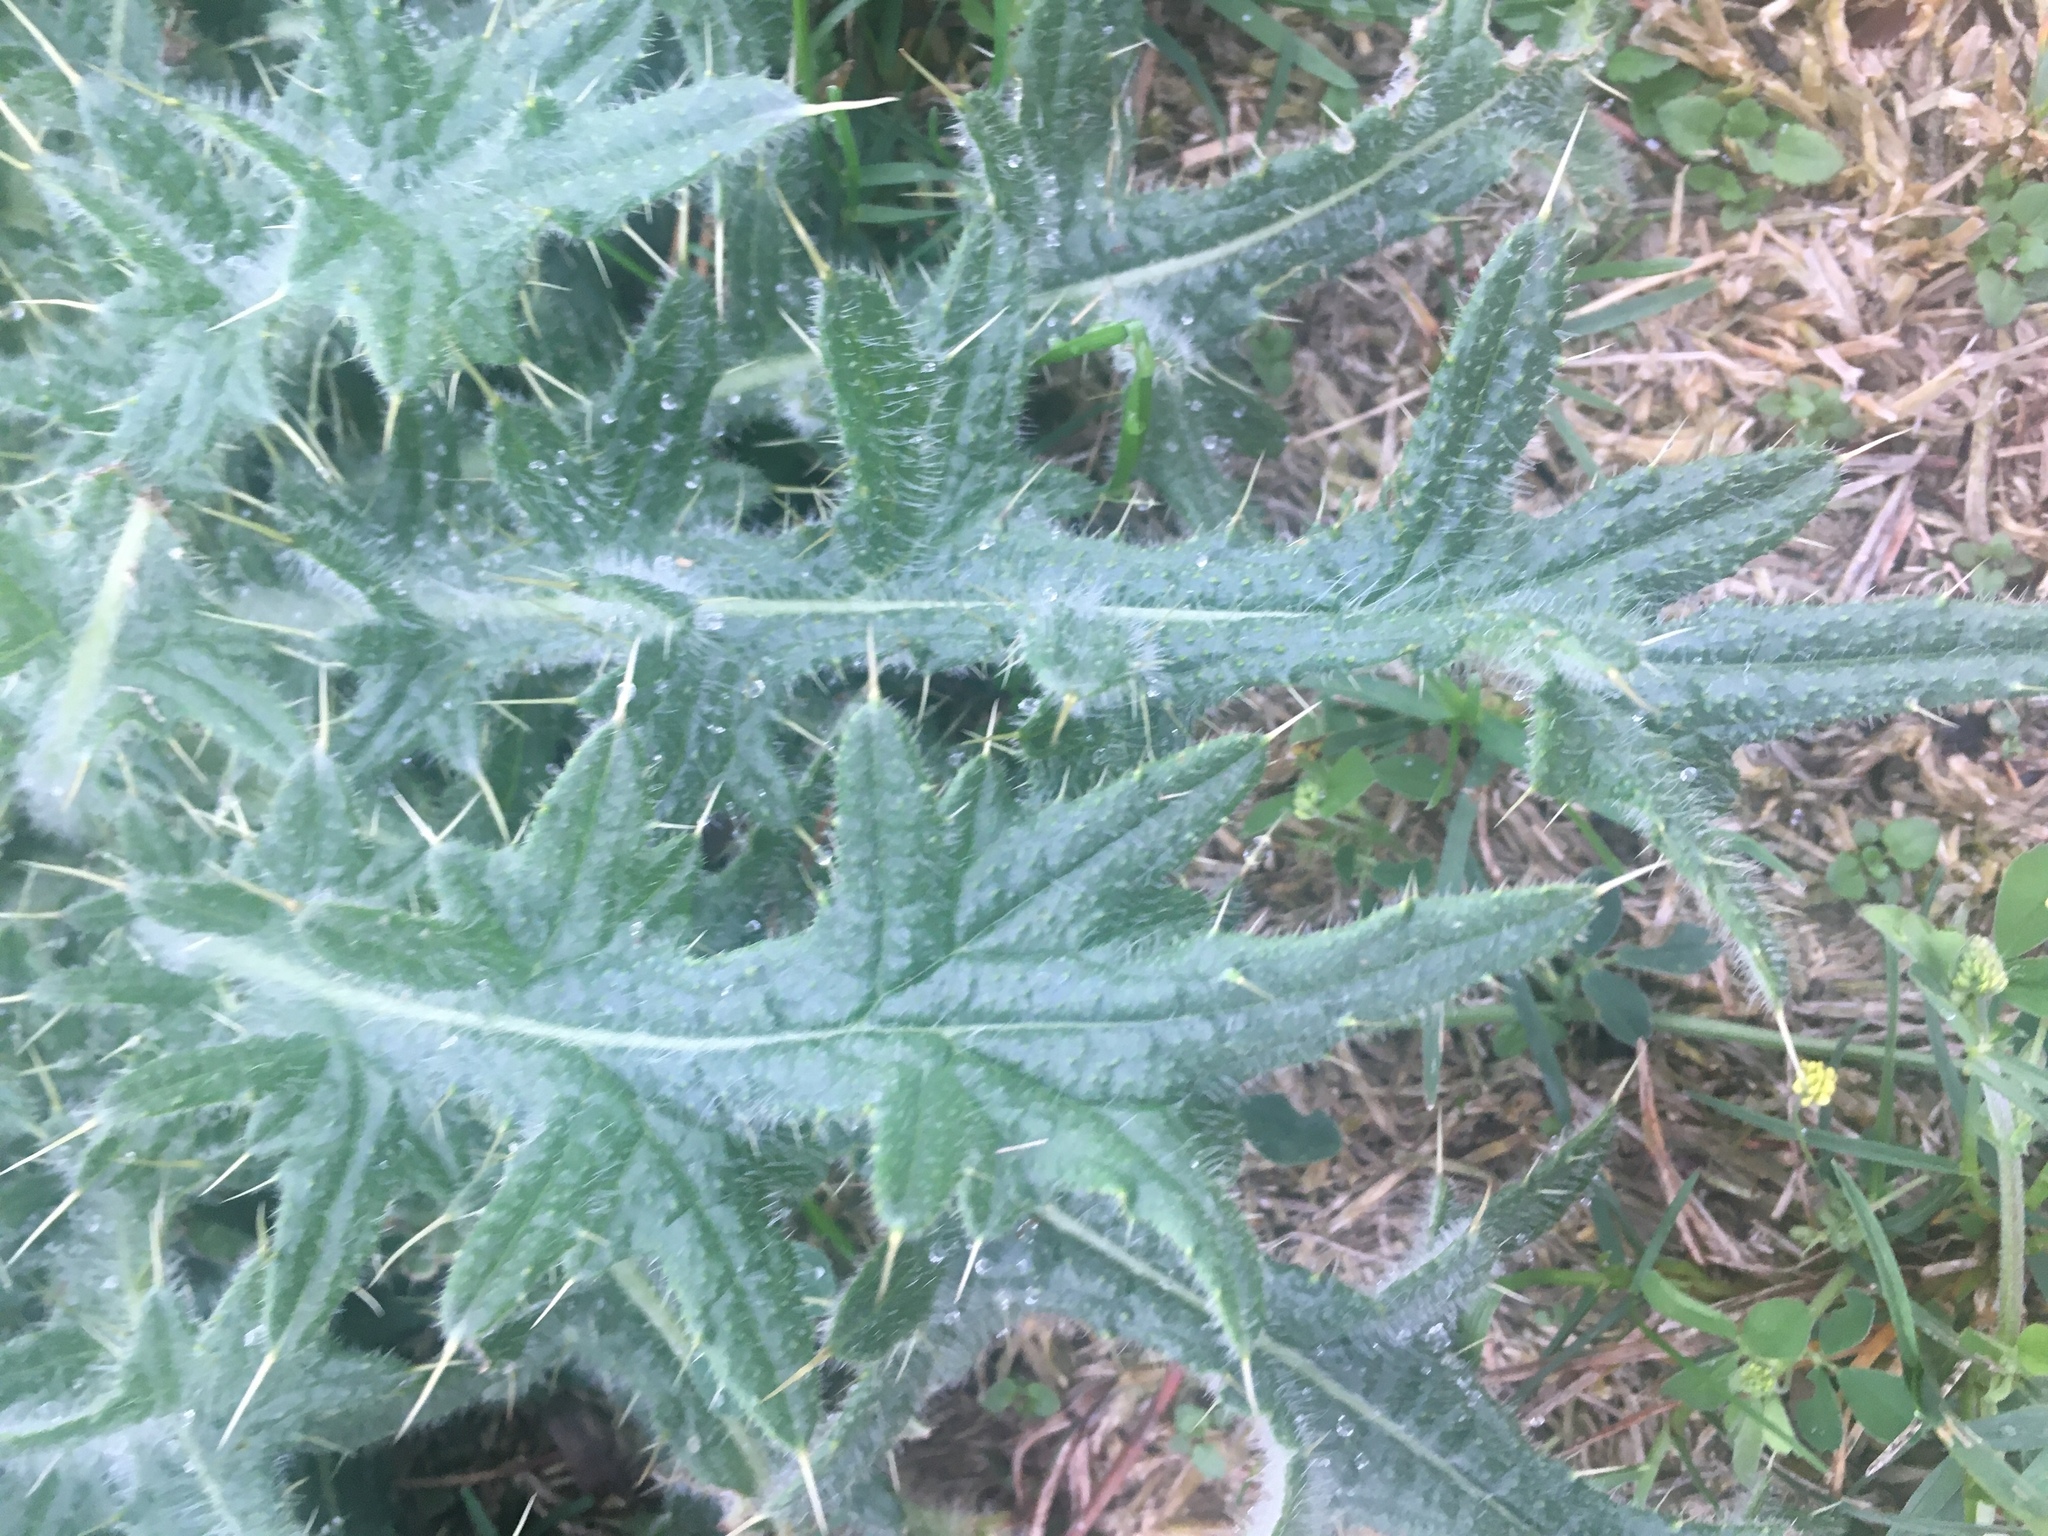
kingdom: Plantae
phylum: Tracheophyta
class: Magnoliopsida
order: Asterales
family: Asteraceae
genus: Cirsium
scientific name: Cirsium vulgare
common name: Bull thistle
